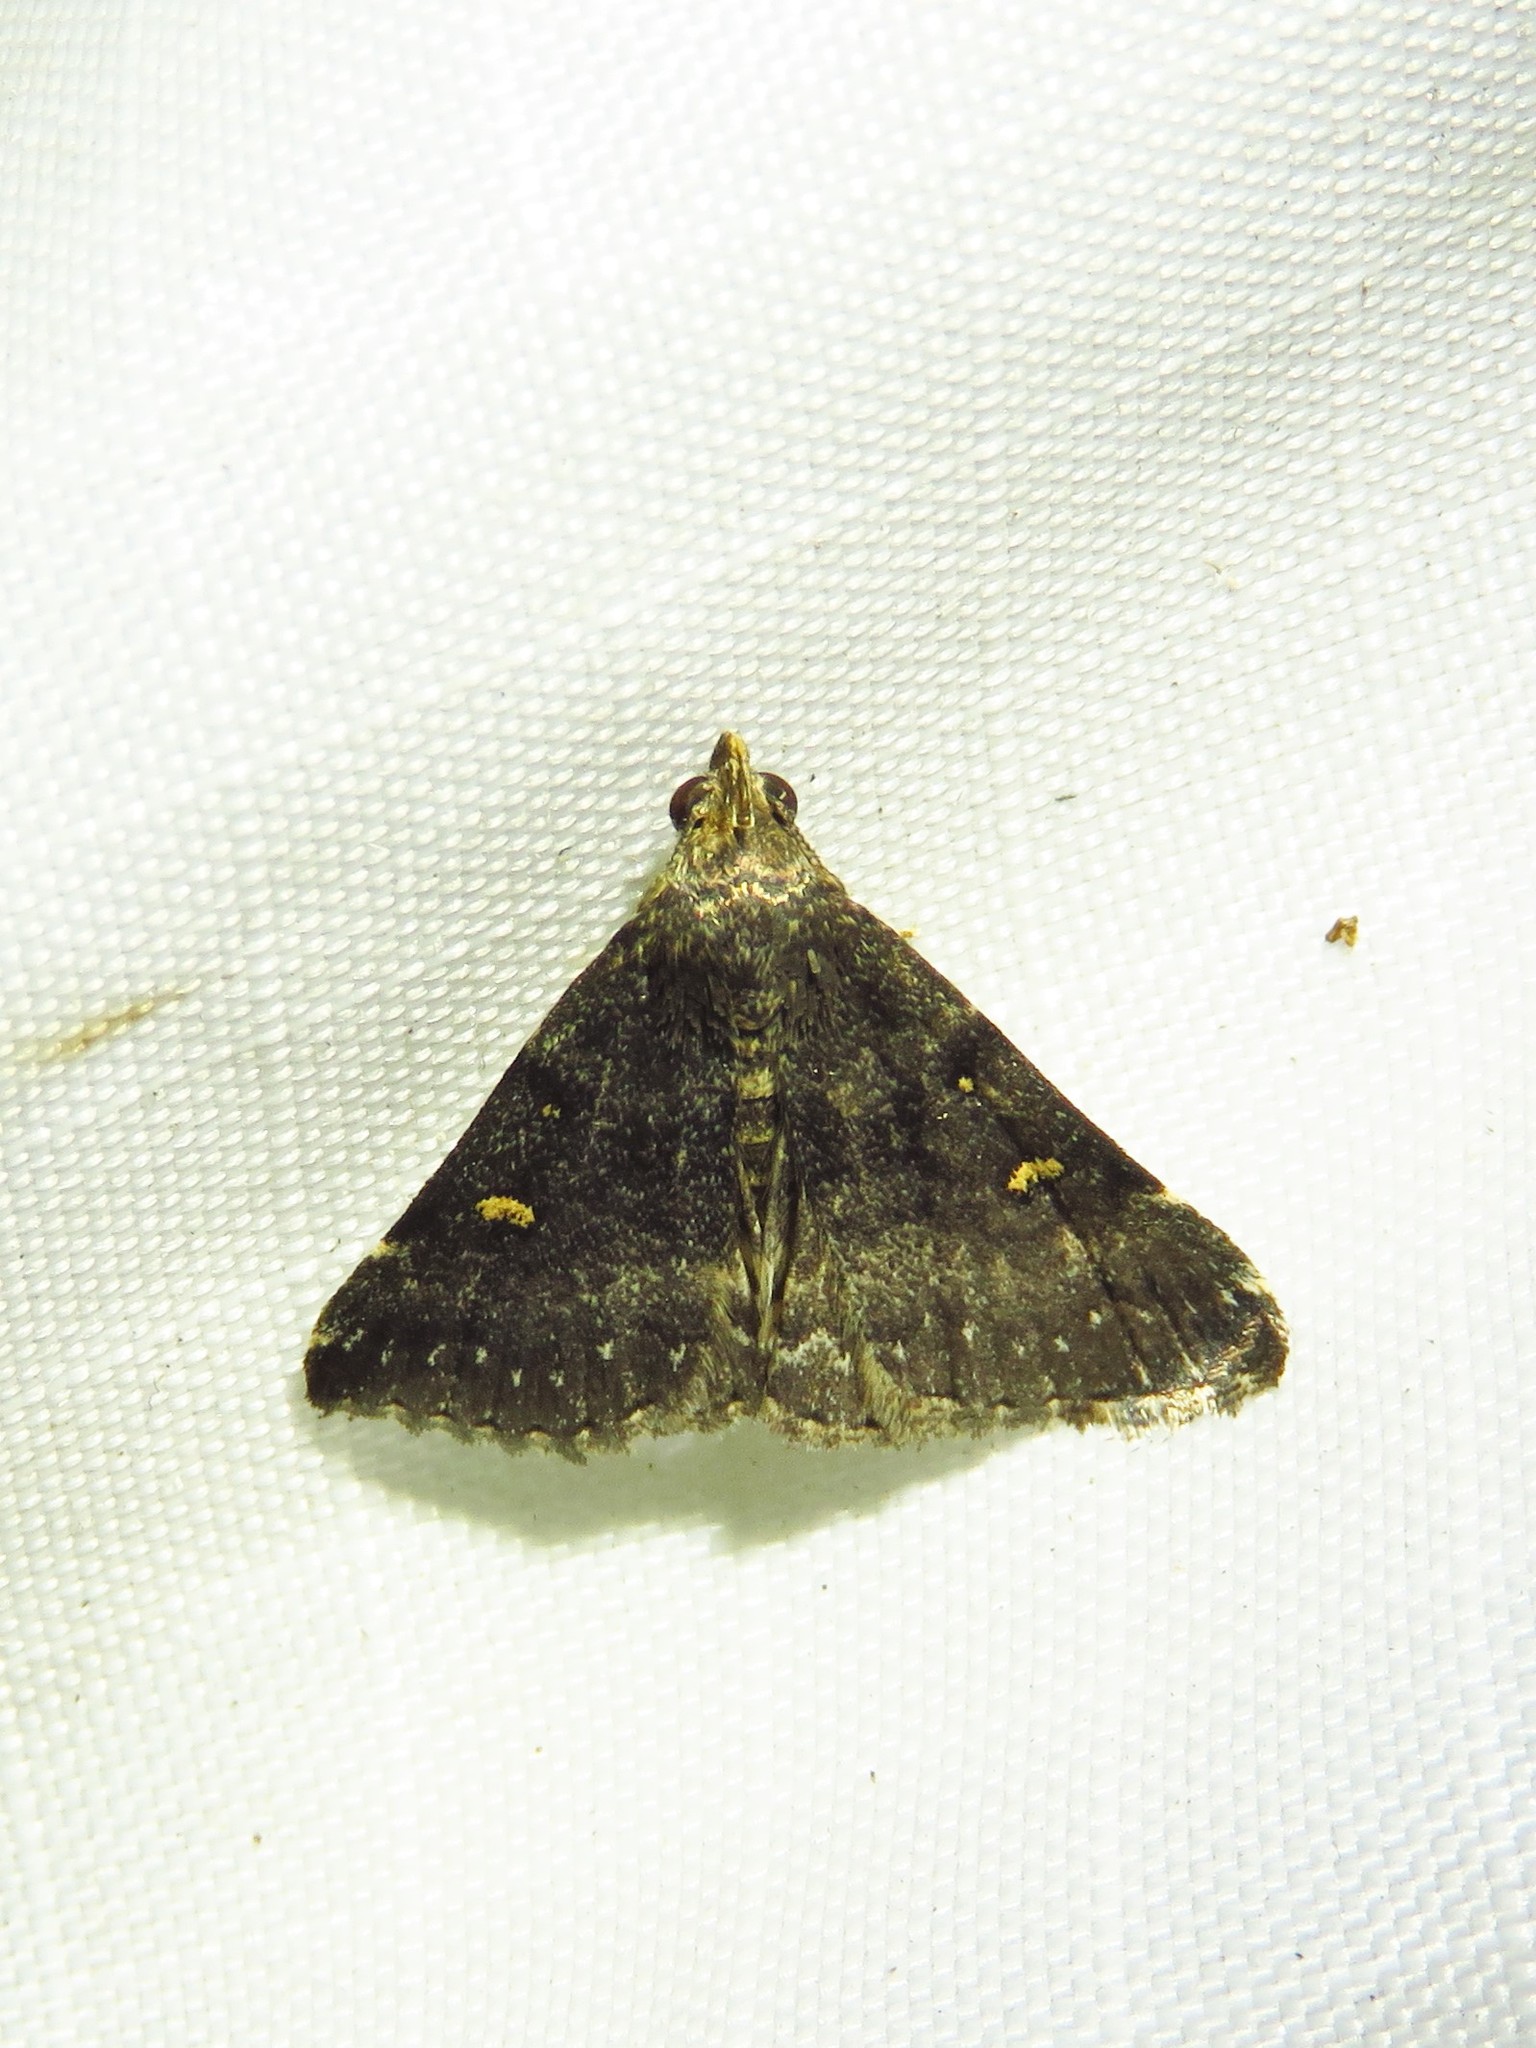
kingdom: Animalia
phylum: Arthropoda
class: Insecta
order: Lepidoptera
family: Erebidae
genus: Tetanolita
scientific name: Tetanolita mynesalis
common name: Smoky tetanolita moth
